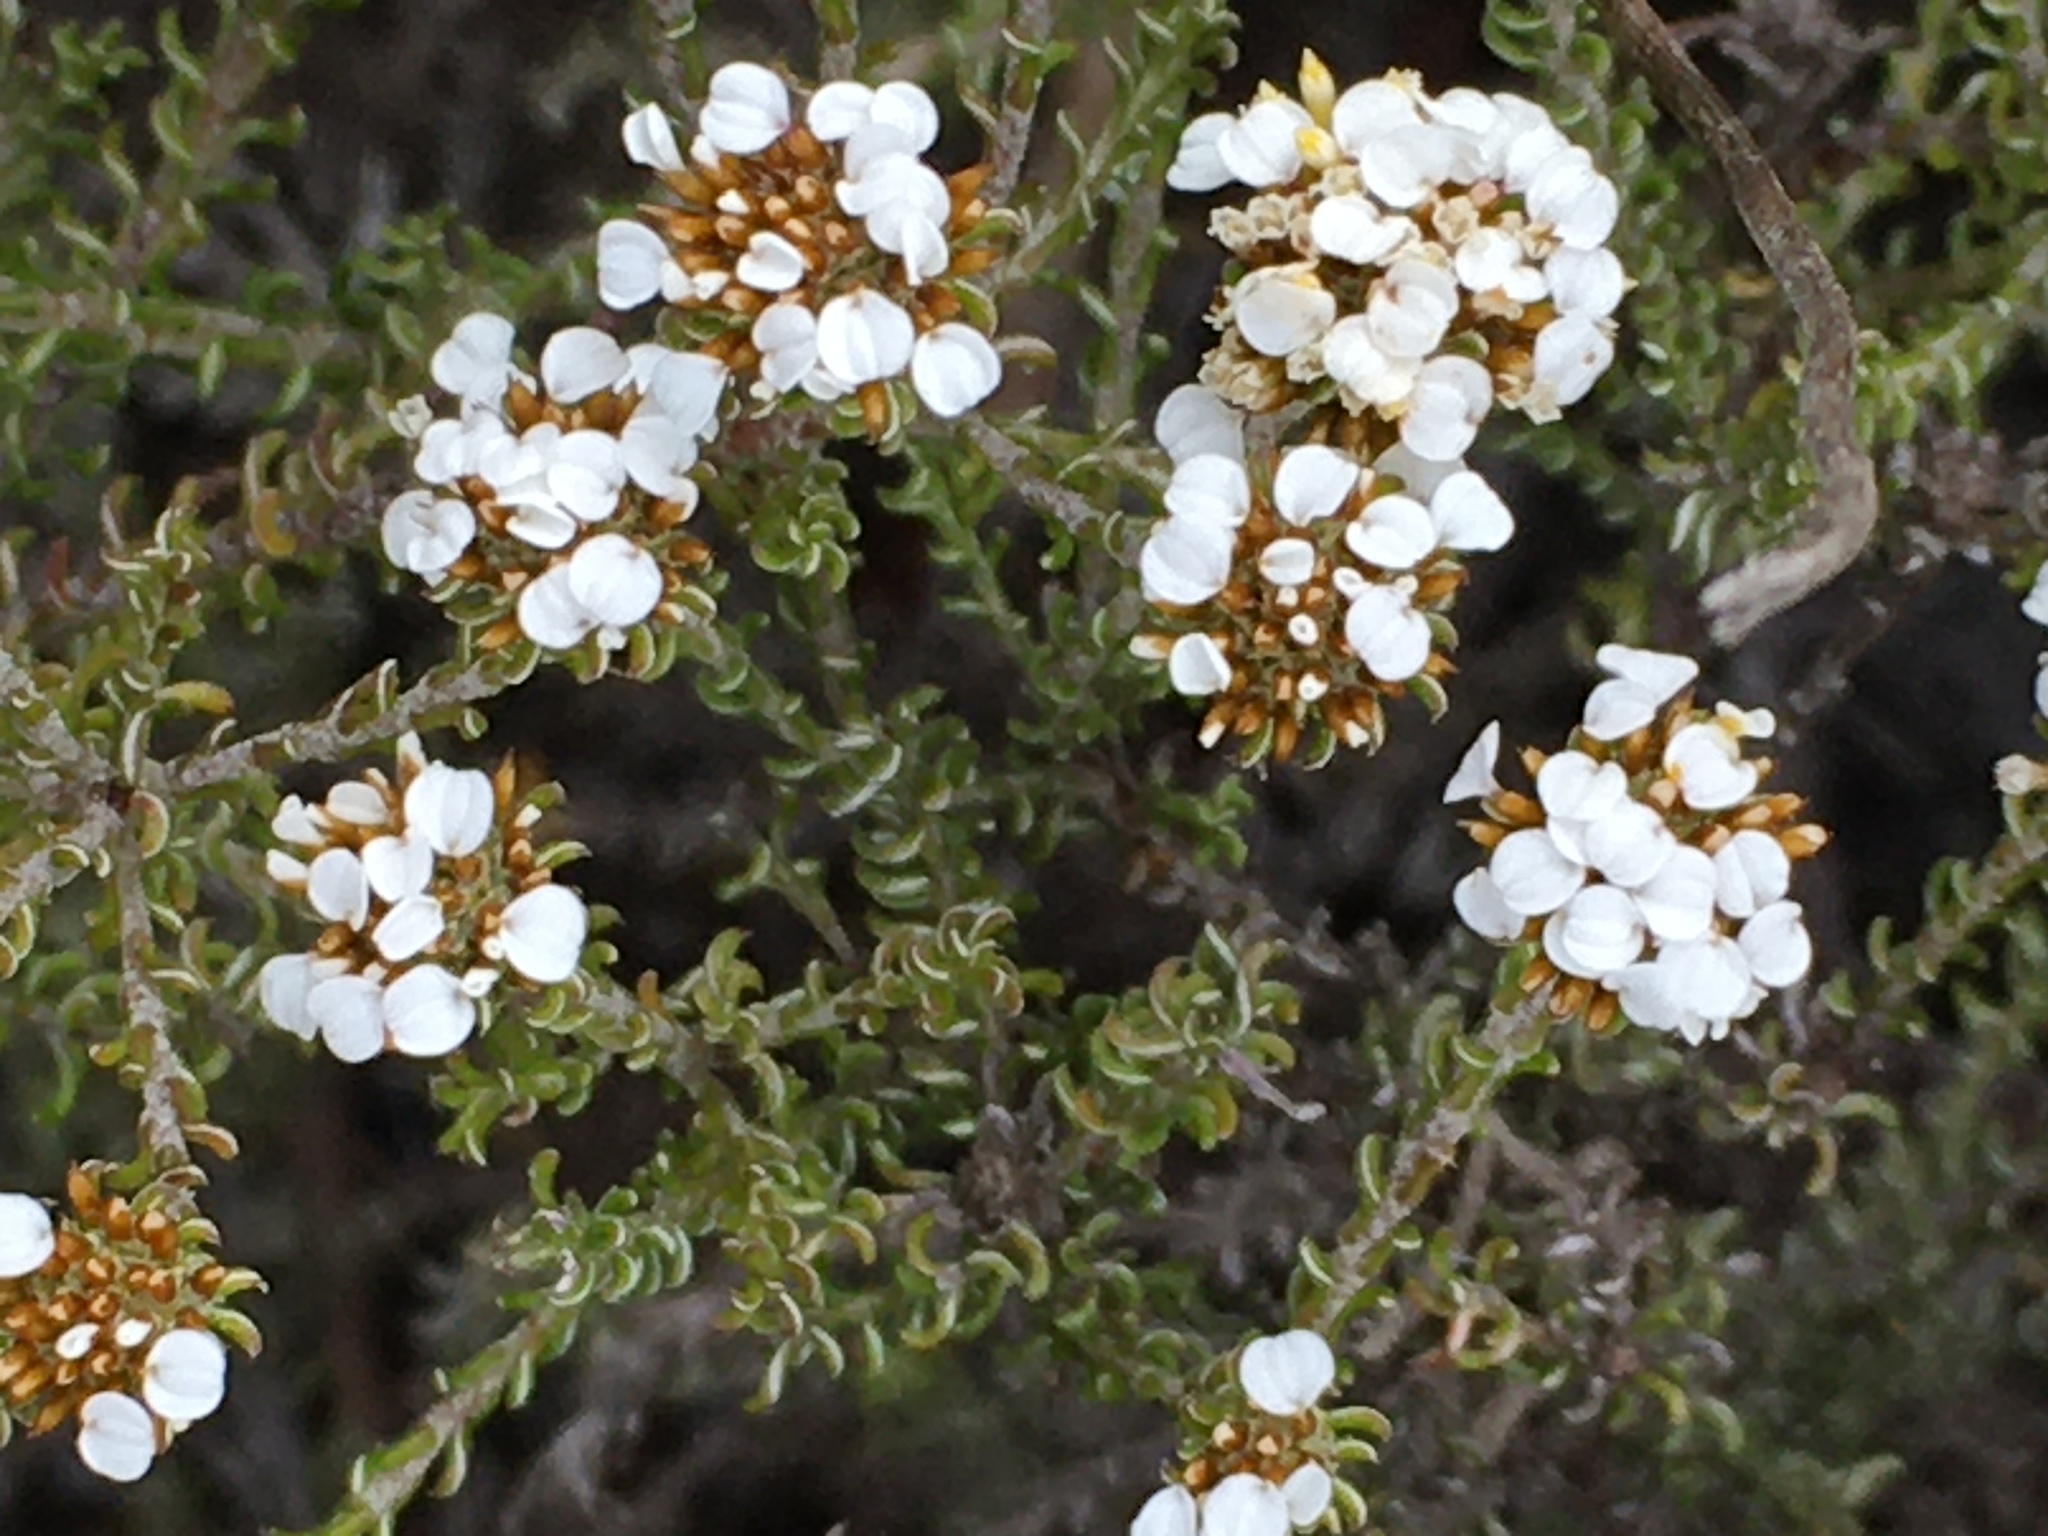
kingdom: Plantae
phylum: Tracheophyta
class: Magnoliopsida
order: Asterales
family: Asteraceae
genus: Disparago
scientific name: Disparago anomala
